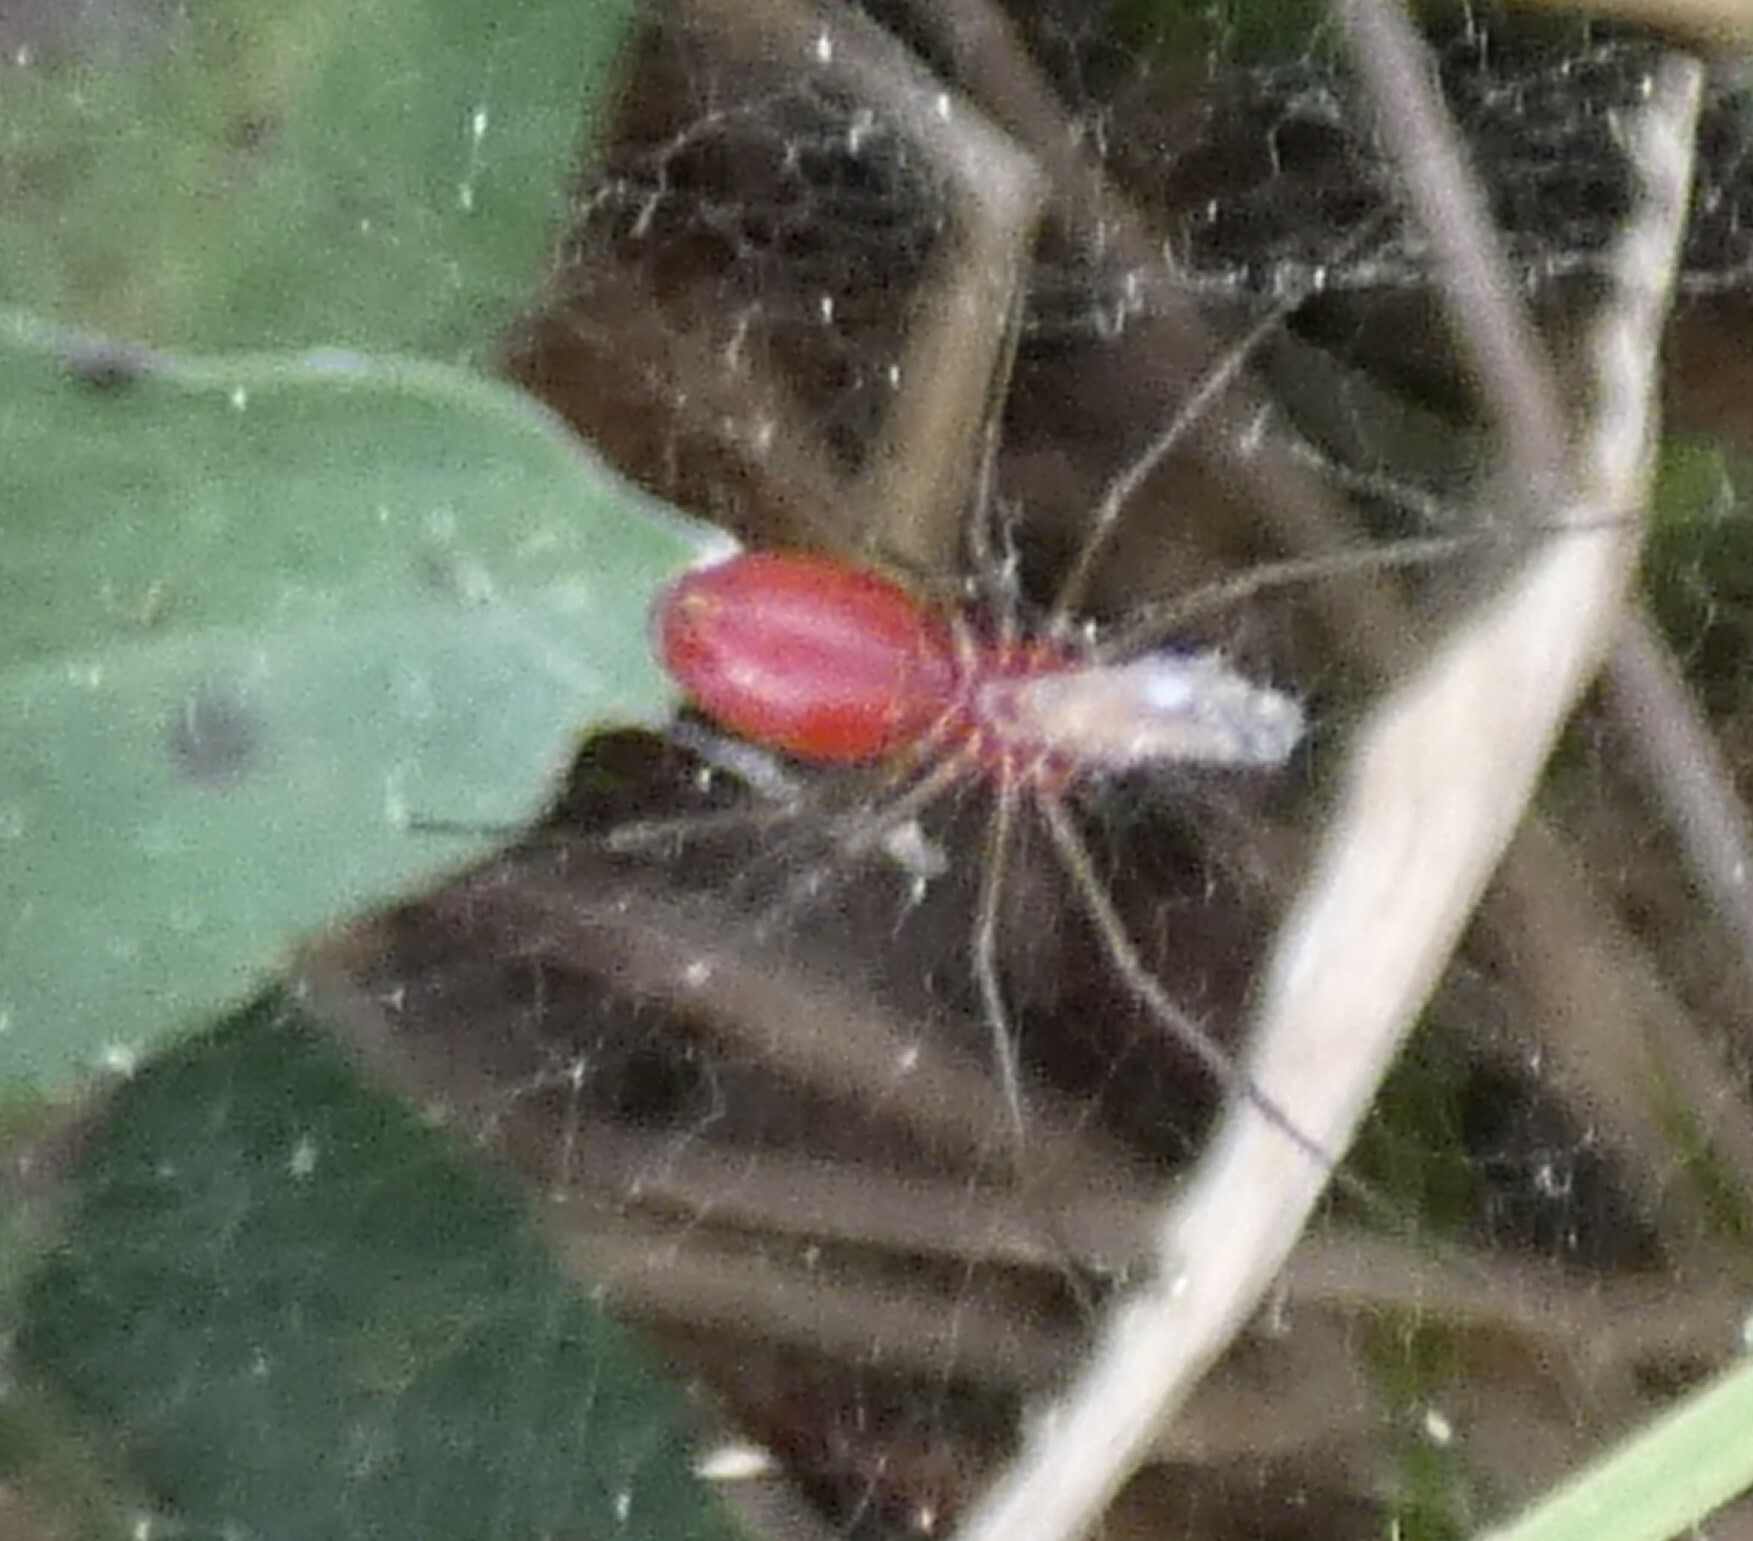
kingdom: Animalia
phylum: Arthropoda
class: Arachnida
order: Araneae
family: Linyphiidae
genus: Florinda
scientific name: Florinda coccinea
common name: Black-tailed red sheetweaver
